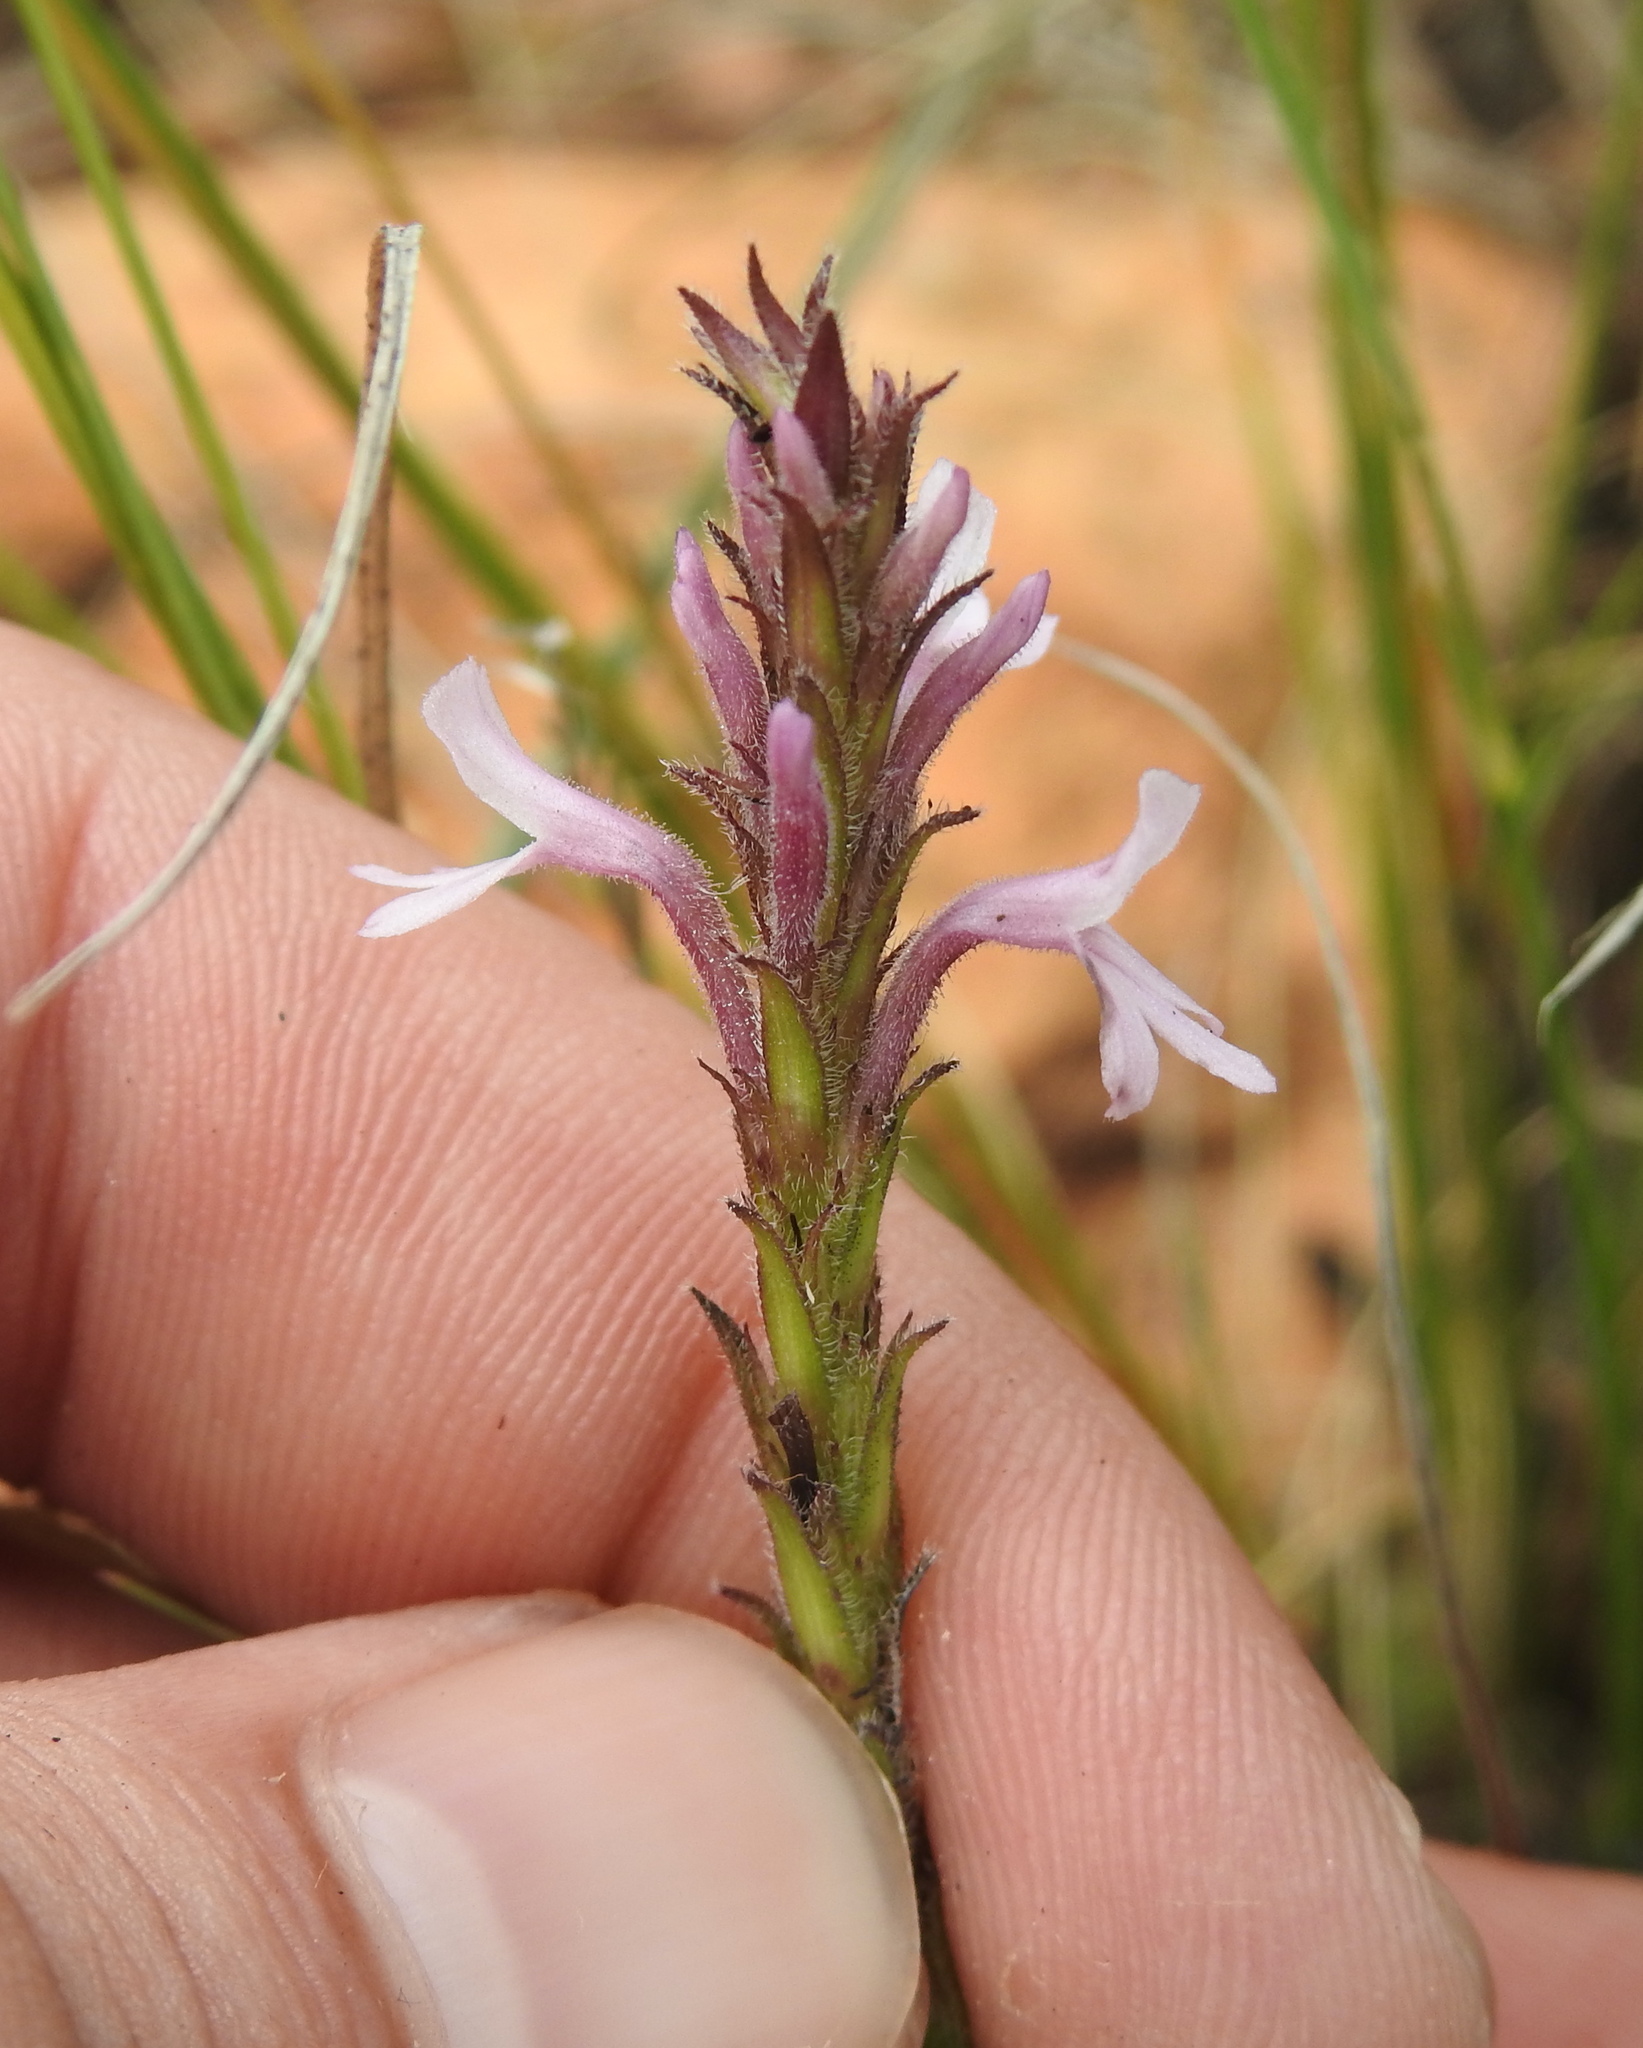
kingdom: Plantae
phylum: Tracheophyta
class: Magnoliopsida
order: Lamiales
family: Orobanchaceae
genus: Striga
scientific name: Striga bilabiata
